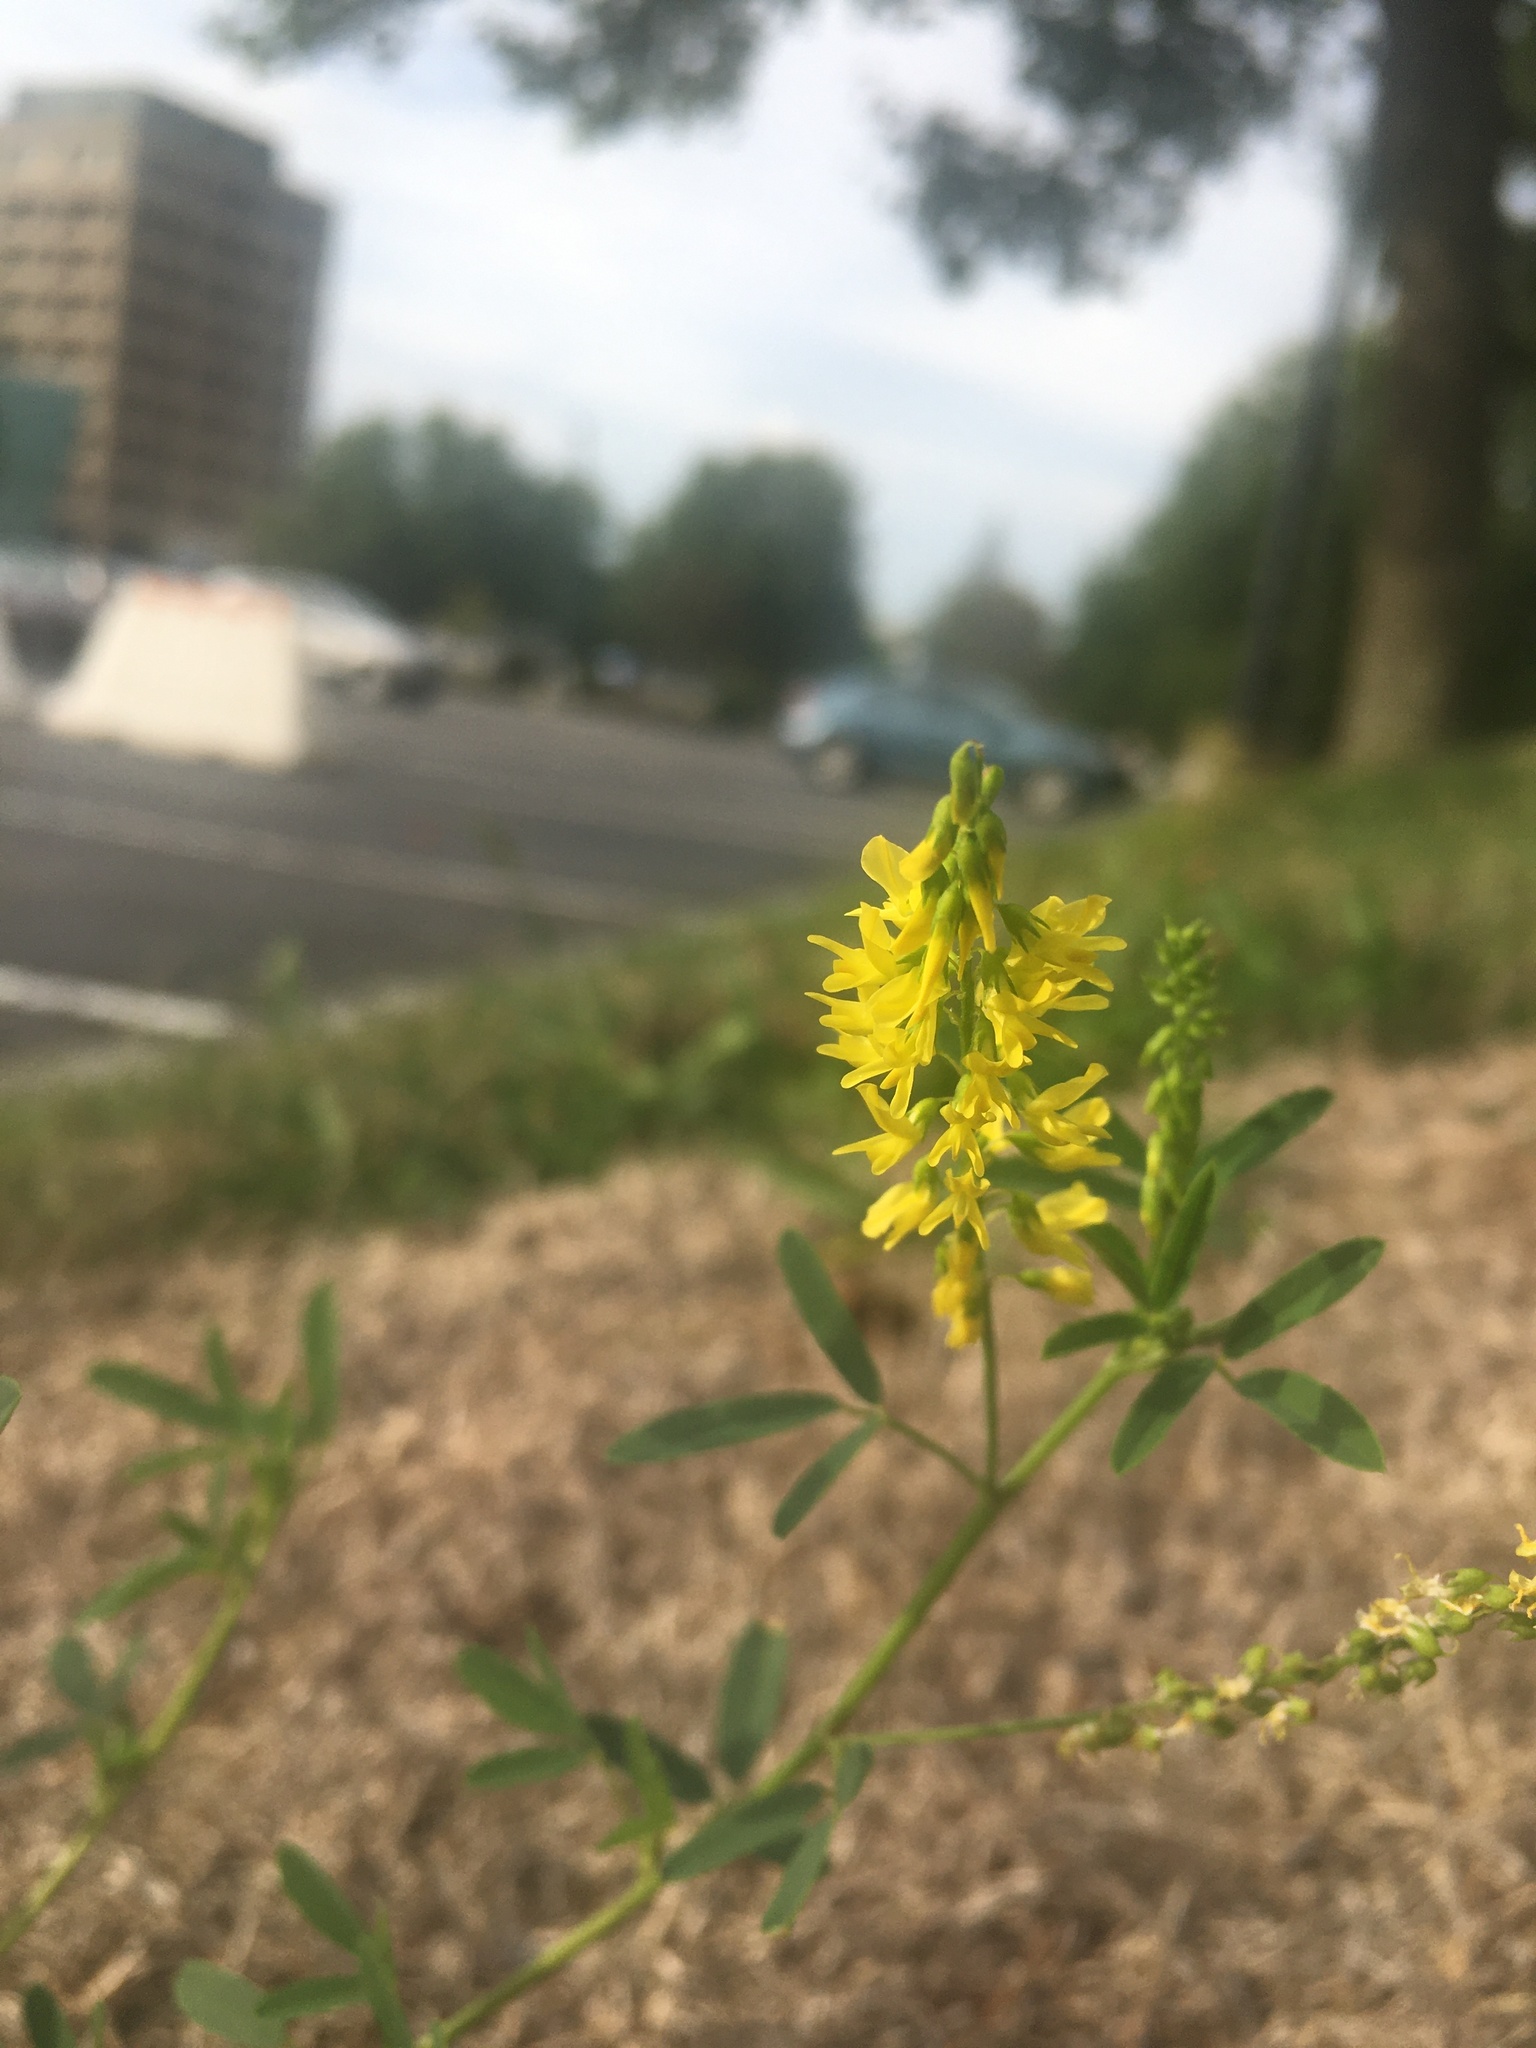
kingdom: Plantae
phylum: Tracheophyta
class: Magnoliopsida
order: Fabales
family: Fabaceae
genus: Melilotus
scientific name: Melilotus officinalis
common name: Sweetclover
